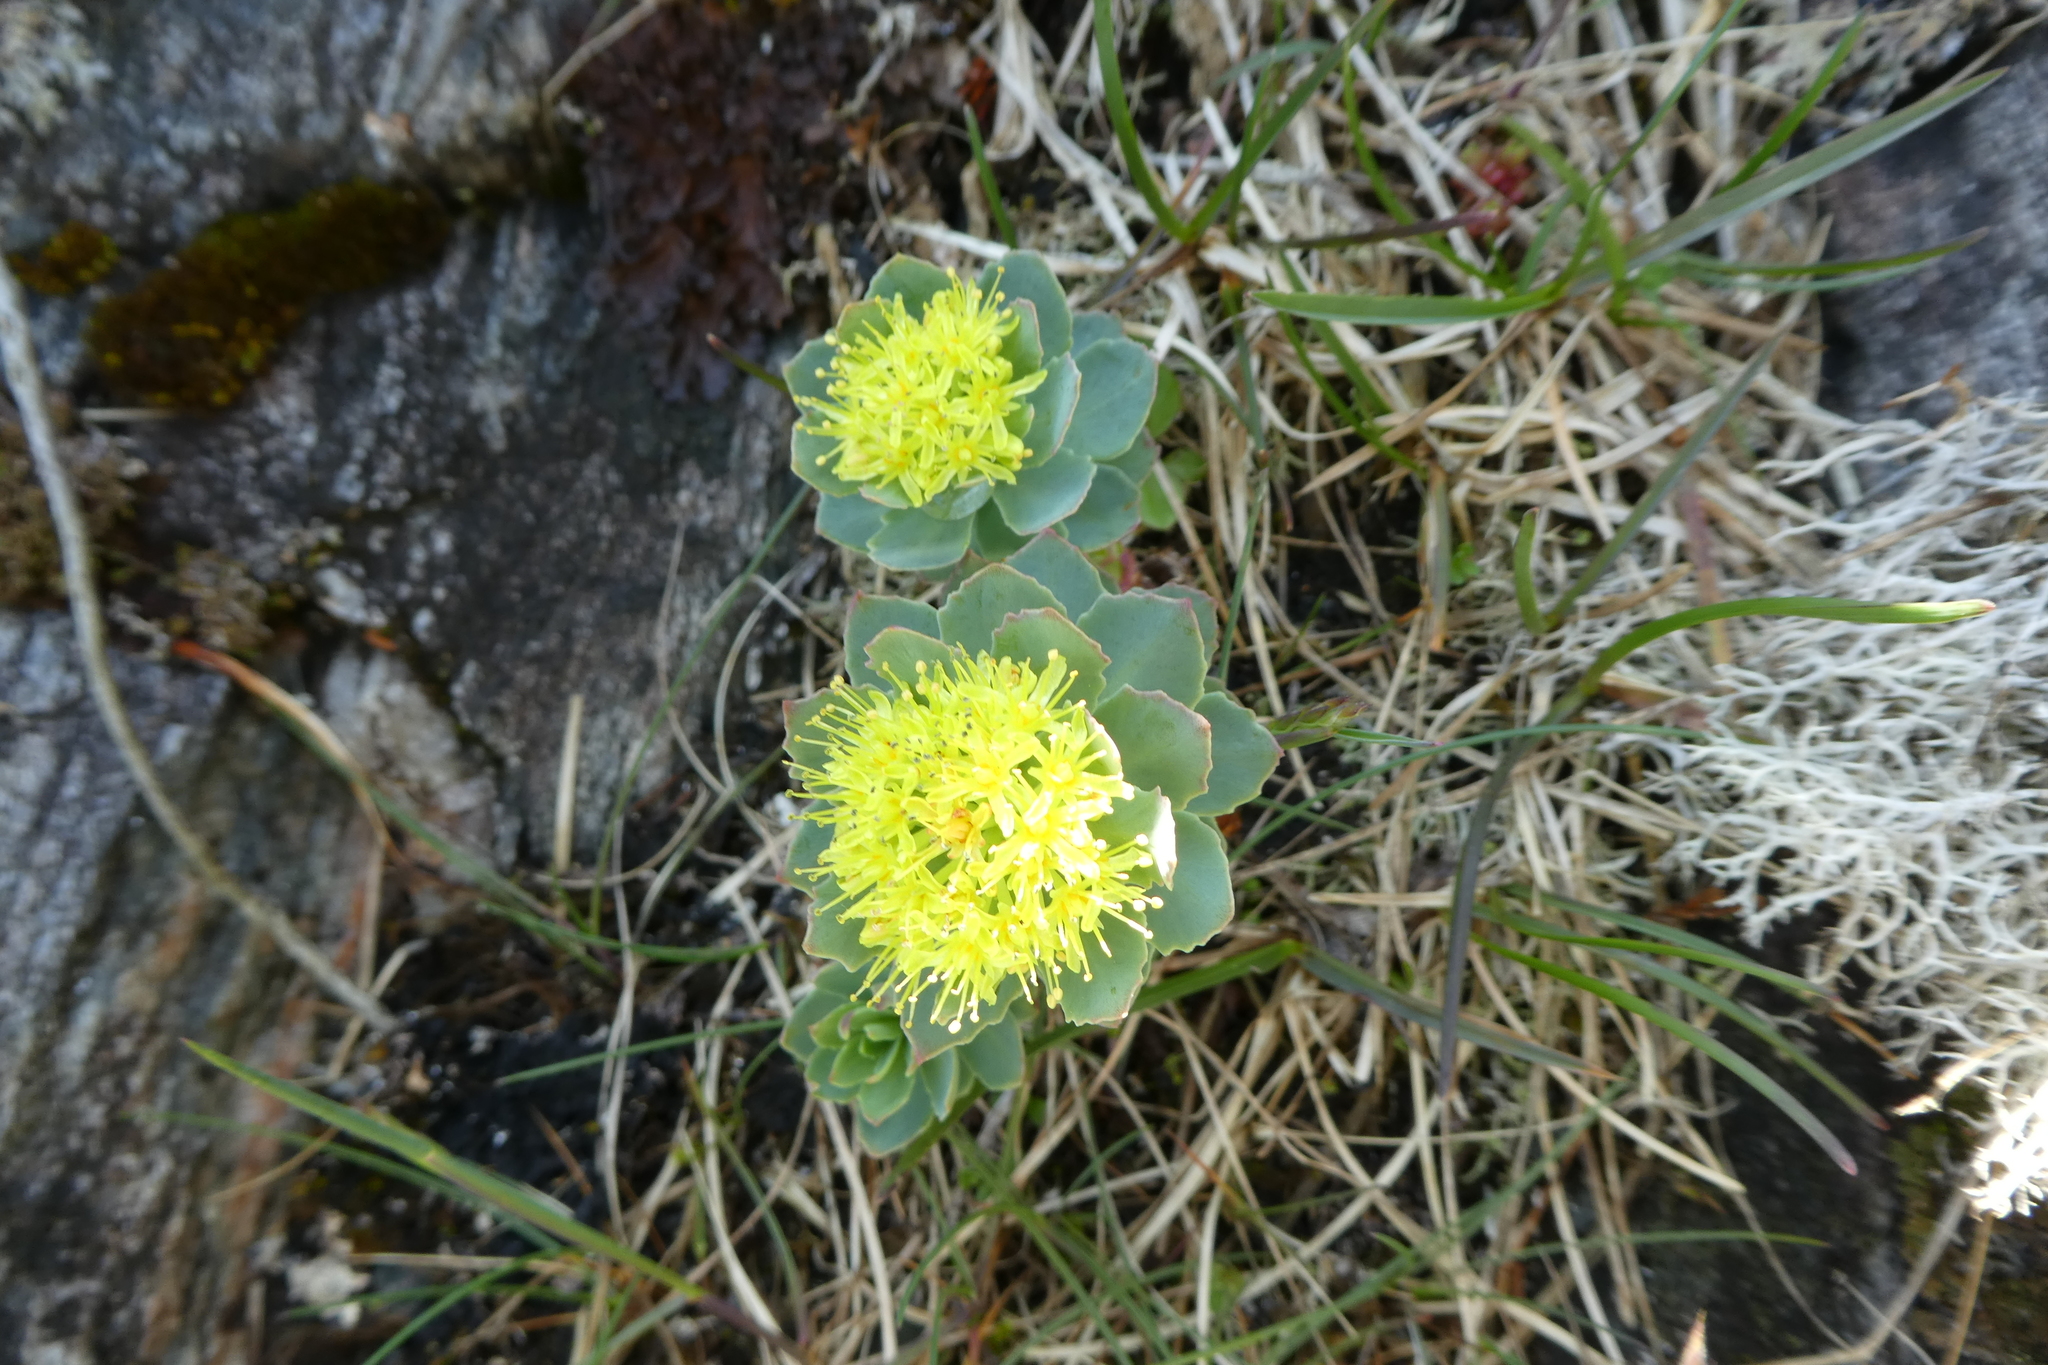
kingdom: Plantae
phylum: Tracheophyta
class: Magnoliopsida
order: Saxifragales
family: Crassulaceae
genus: Rhodiola
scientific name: Rhodiola rosea
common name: Roseroot
